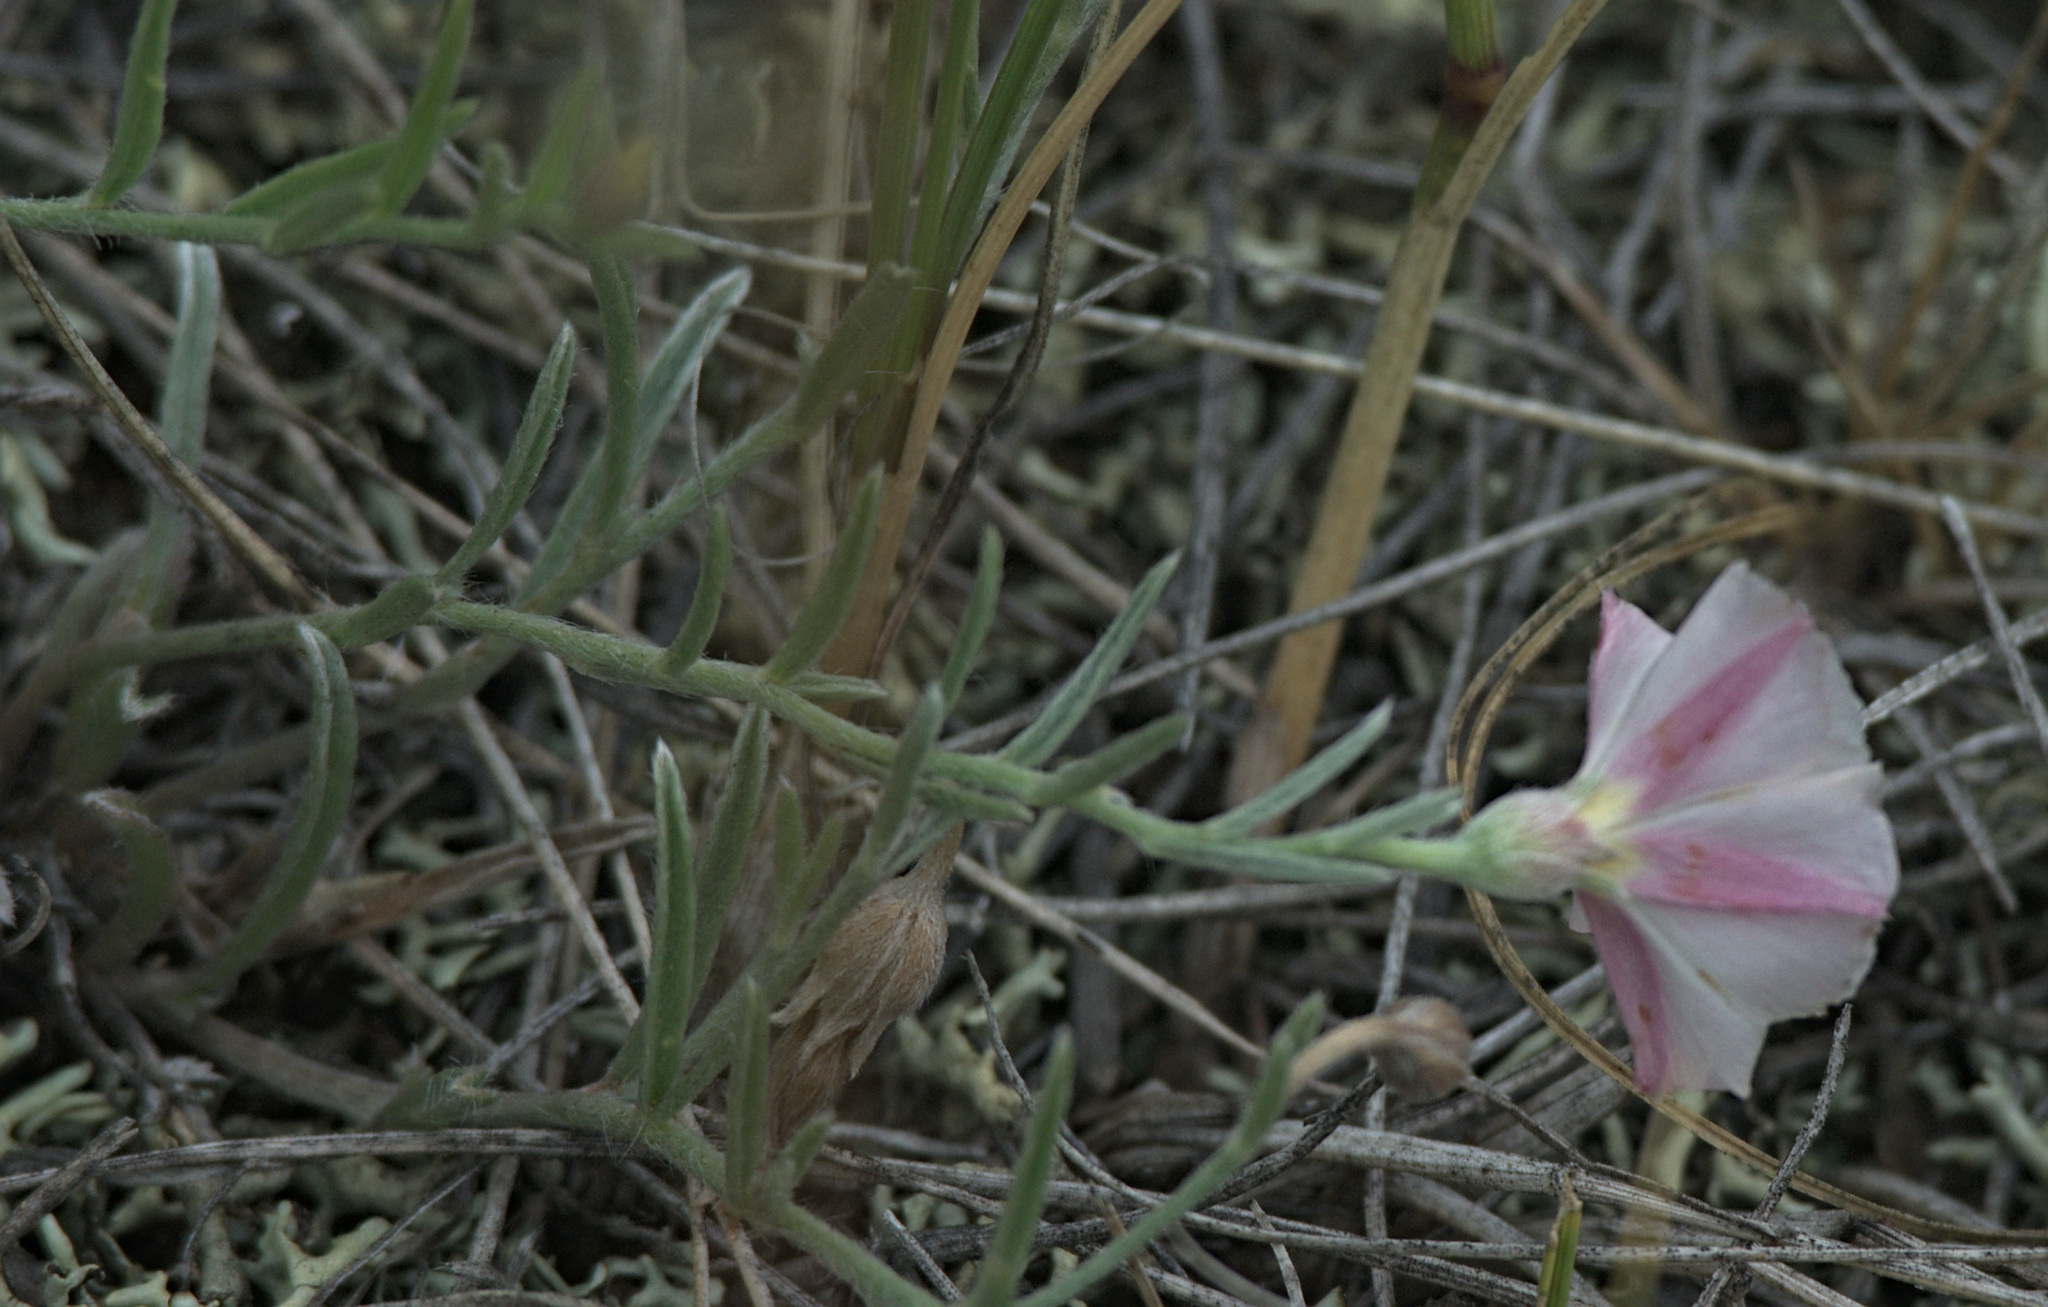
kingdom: Plantae
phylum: Tracheophyta
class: Magnoliopsida
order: Solanales
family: Convolvulaceae
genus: Convolvulus
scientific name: Convolvulus ammannii
